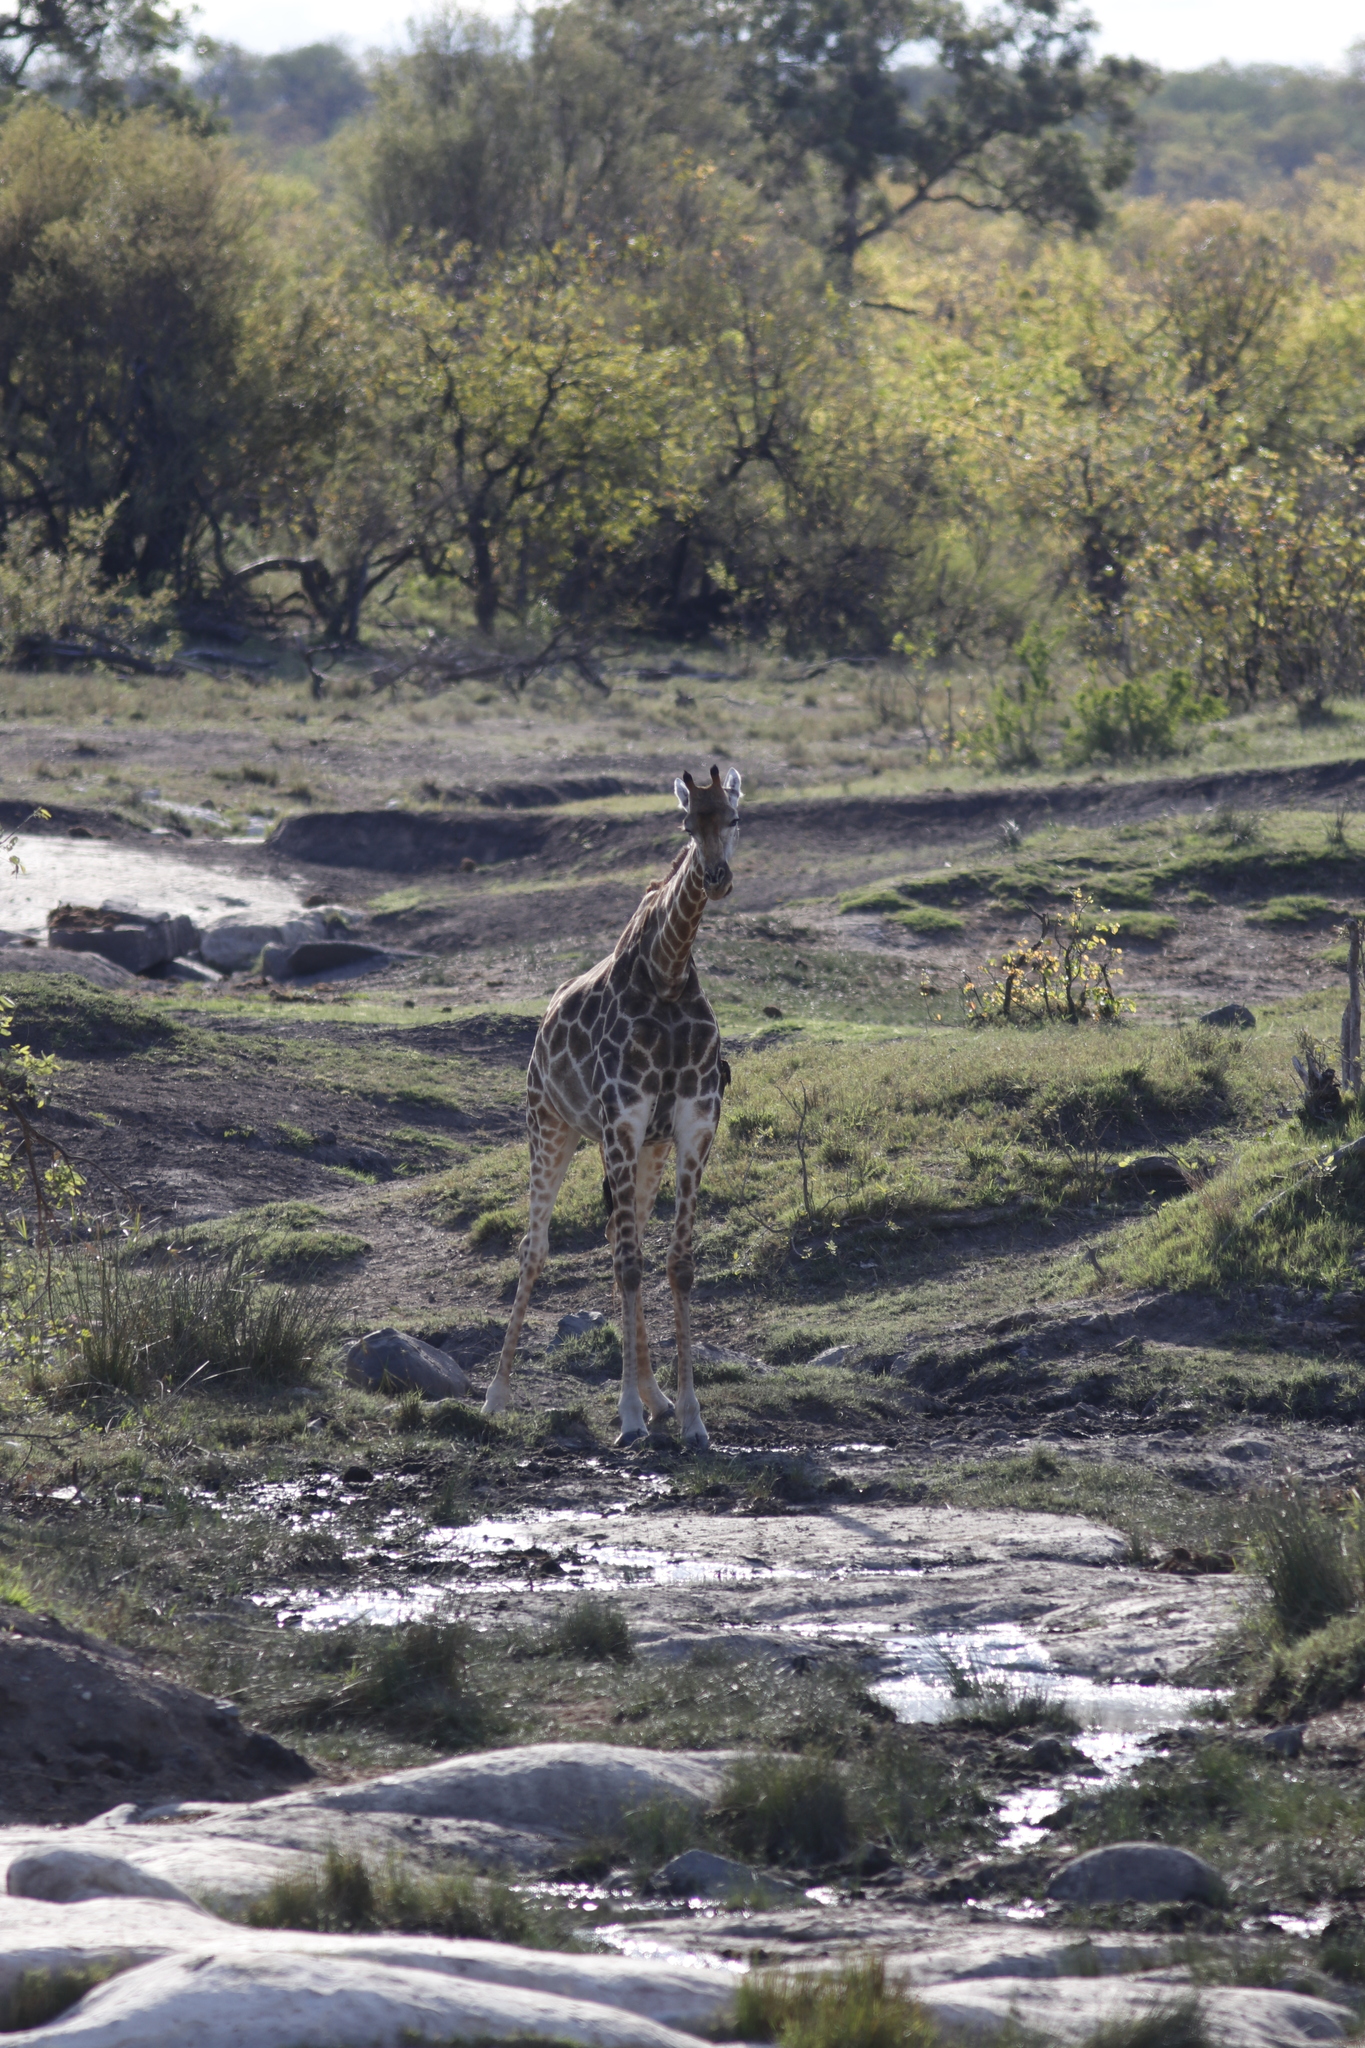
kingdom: Animalia
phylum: Chordata
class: Mammalia
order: Artiodactyla
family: Giraffidae
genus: Giraffa
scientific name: Giraffa giraffa
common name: Southern giraffe
